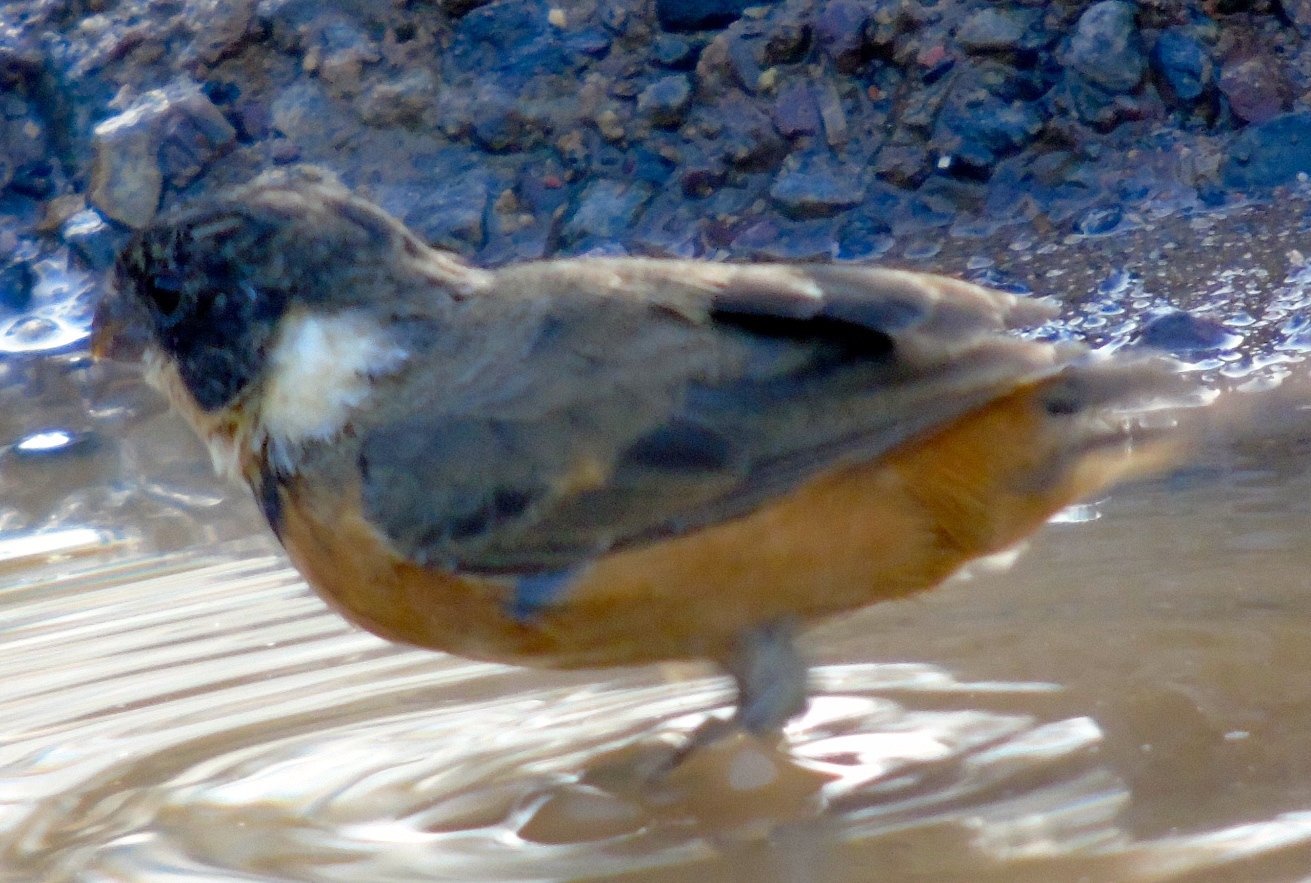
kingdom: Animalia
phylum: Chordata
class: Aves
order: Passeriformes
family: Thraupidae
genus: Sporophila
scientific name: Sporophila torqueola
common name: White-collared seedeater
